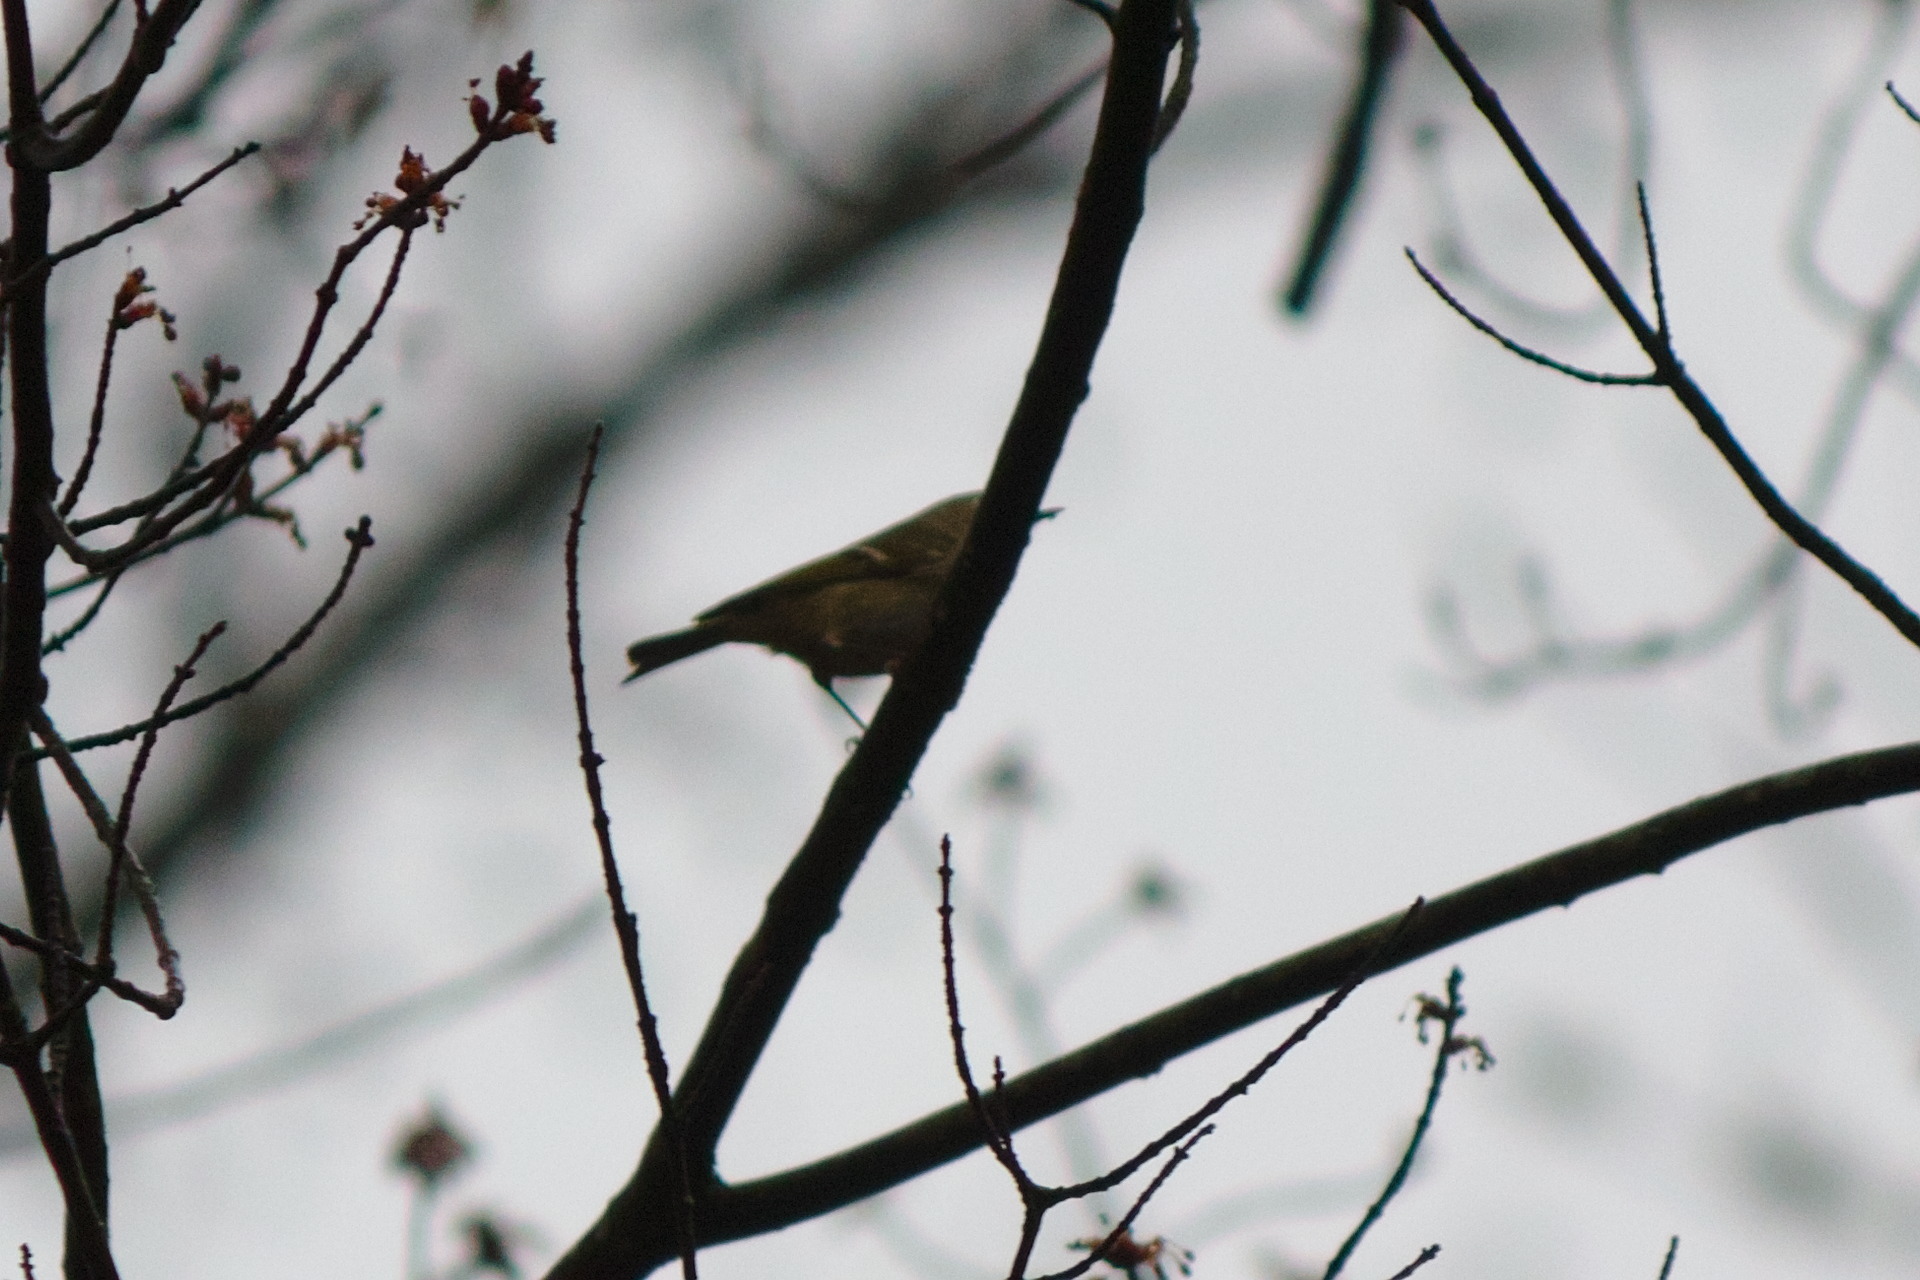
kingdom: Animalia
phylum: Chordata
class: Aves
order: Passeriformes
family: Regulidae
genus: Regulus
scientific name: Regulus calendula
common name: Ruby-crowned kinglet
